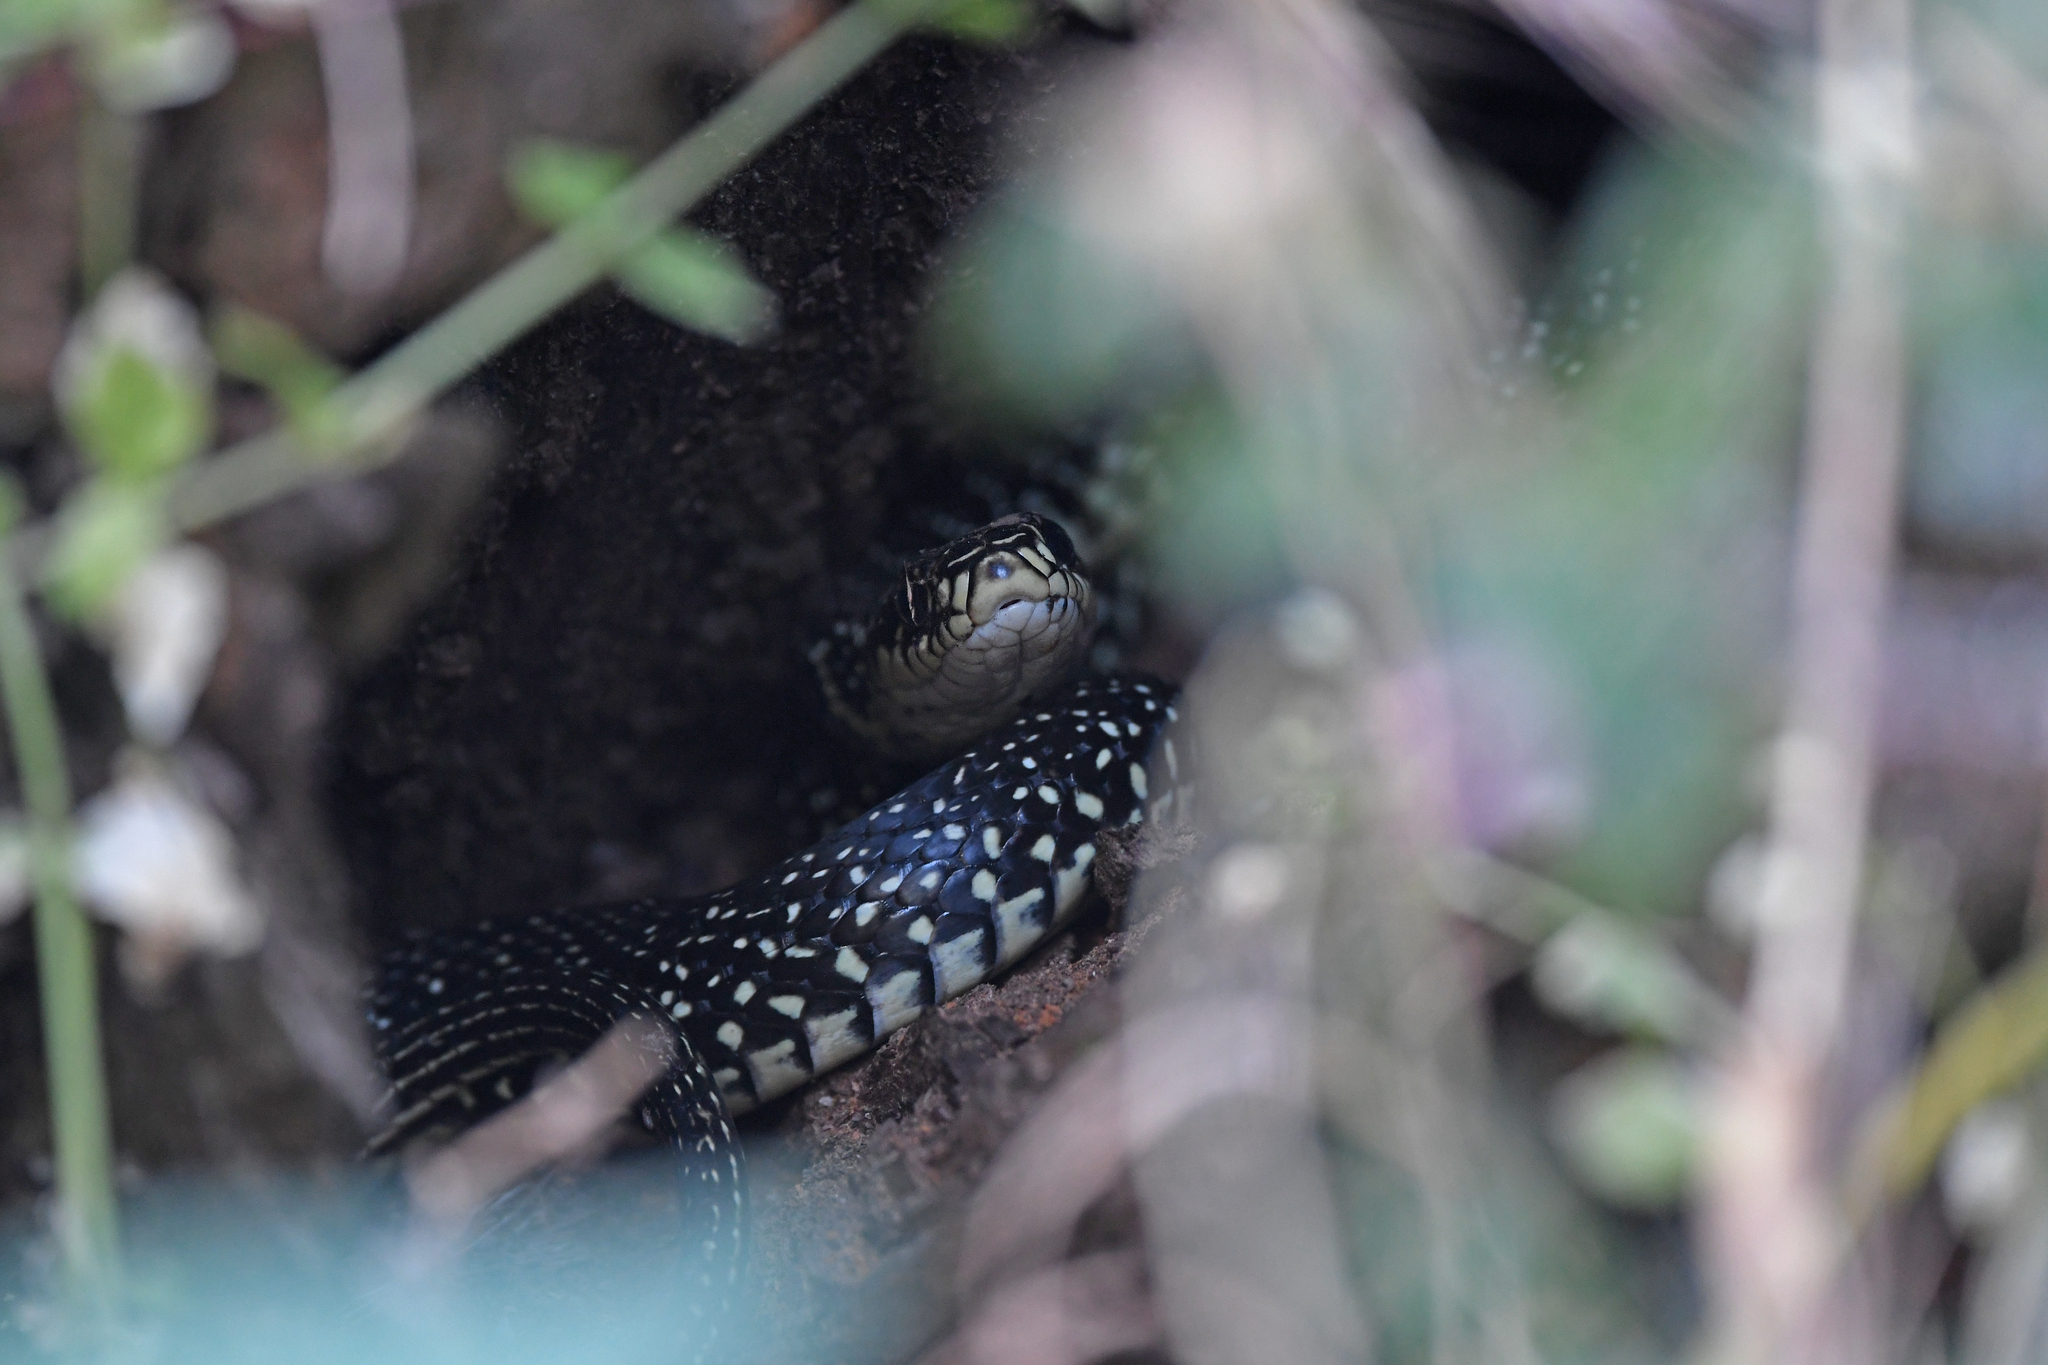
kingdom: Animalia
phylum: Chordata
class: Squamata
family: Colubridae
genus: Hierophis
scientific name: Hierophis viridiflavus
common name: Green whip snake
